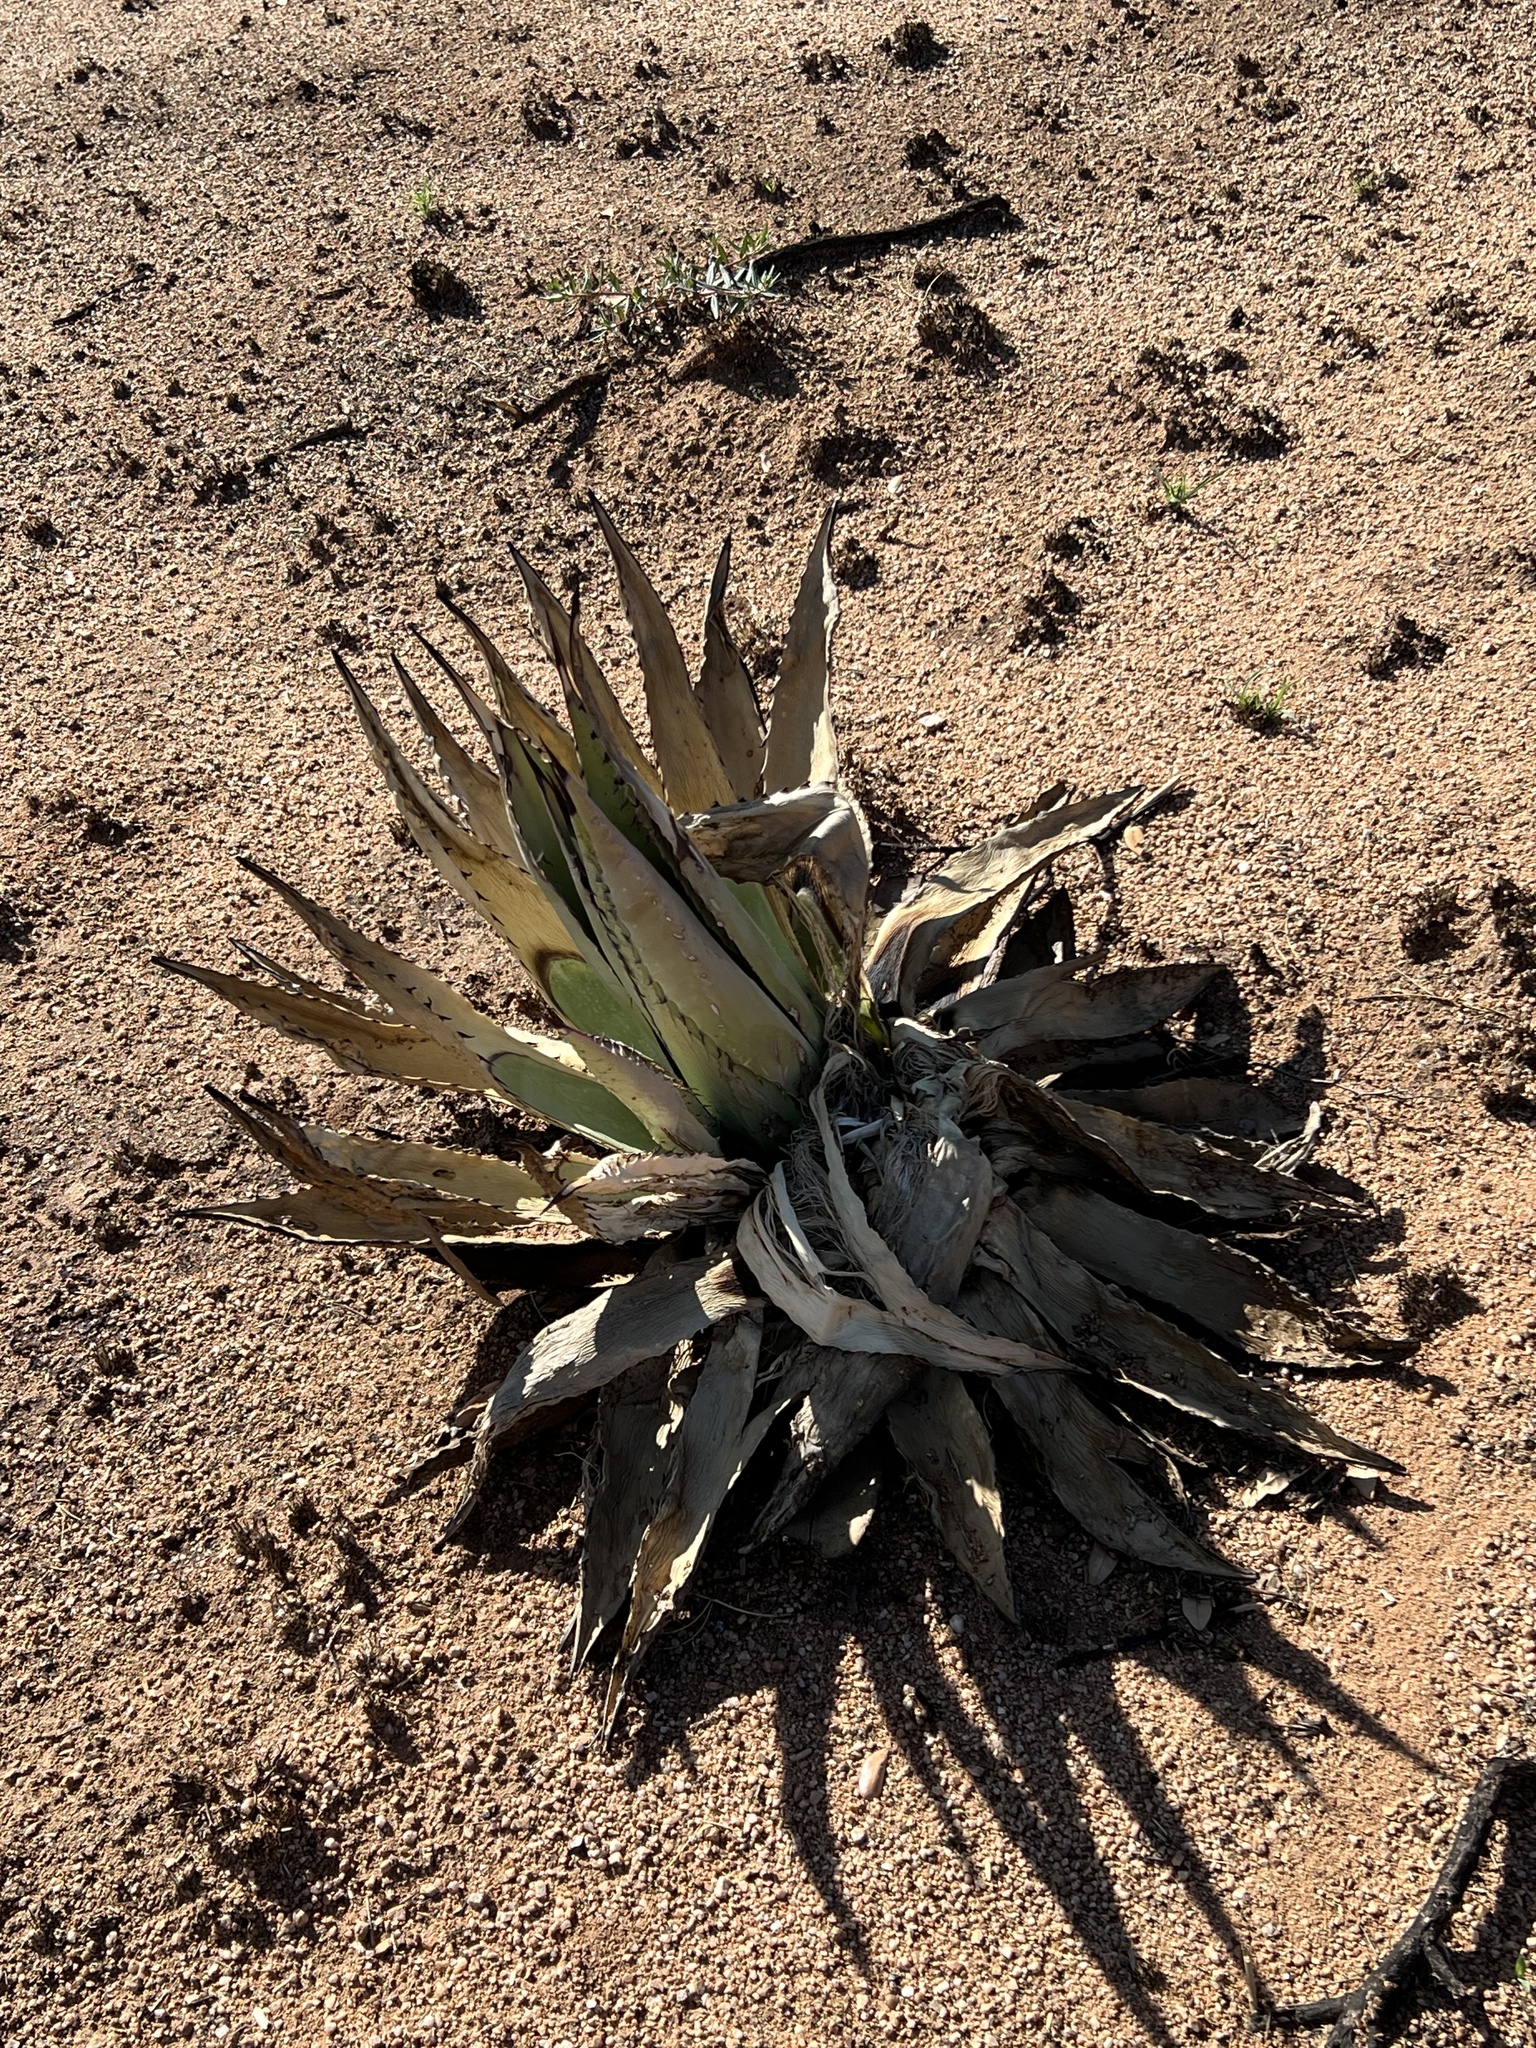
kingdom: Plantae
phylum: Tracheophyta
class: Liliopsida
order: Asparagales
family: Asparagaceae
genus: Agave
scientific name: Agave palmeri
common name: Palmer agave
